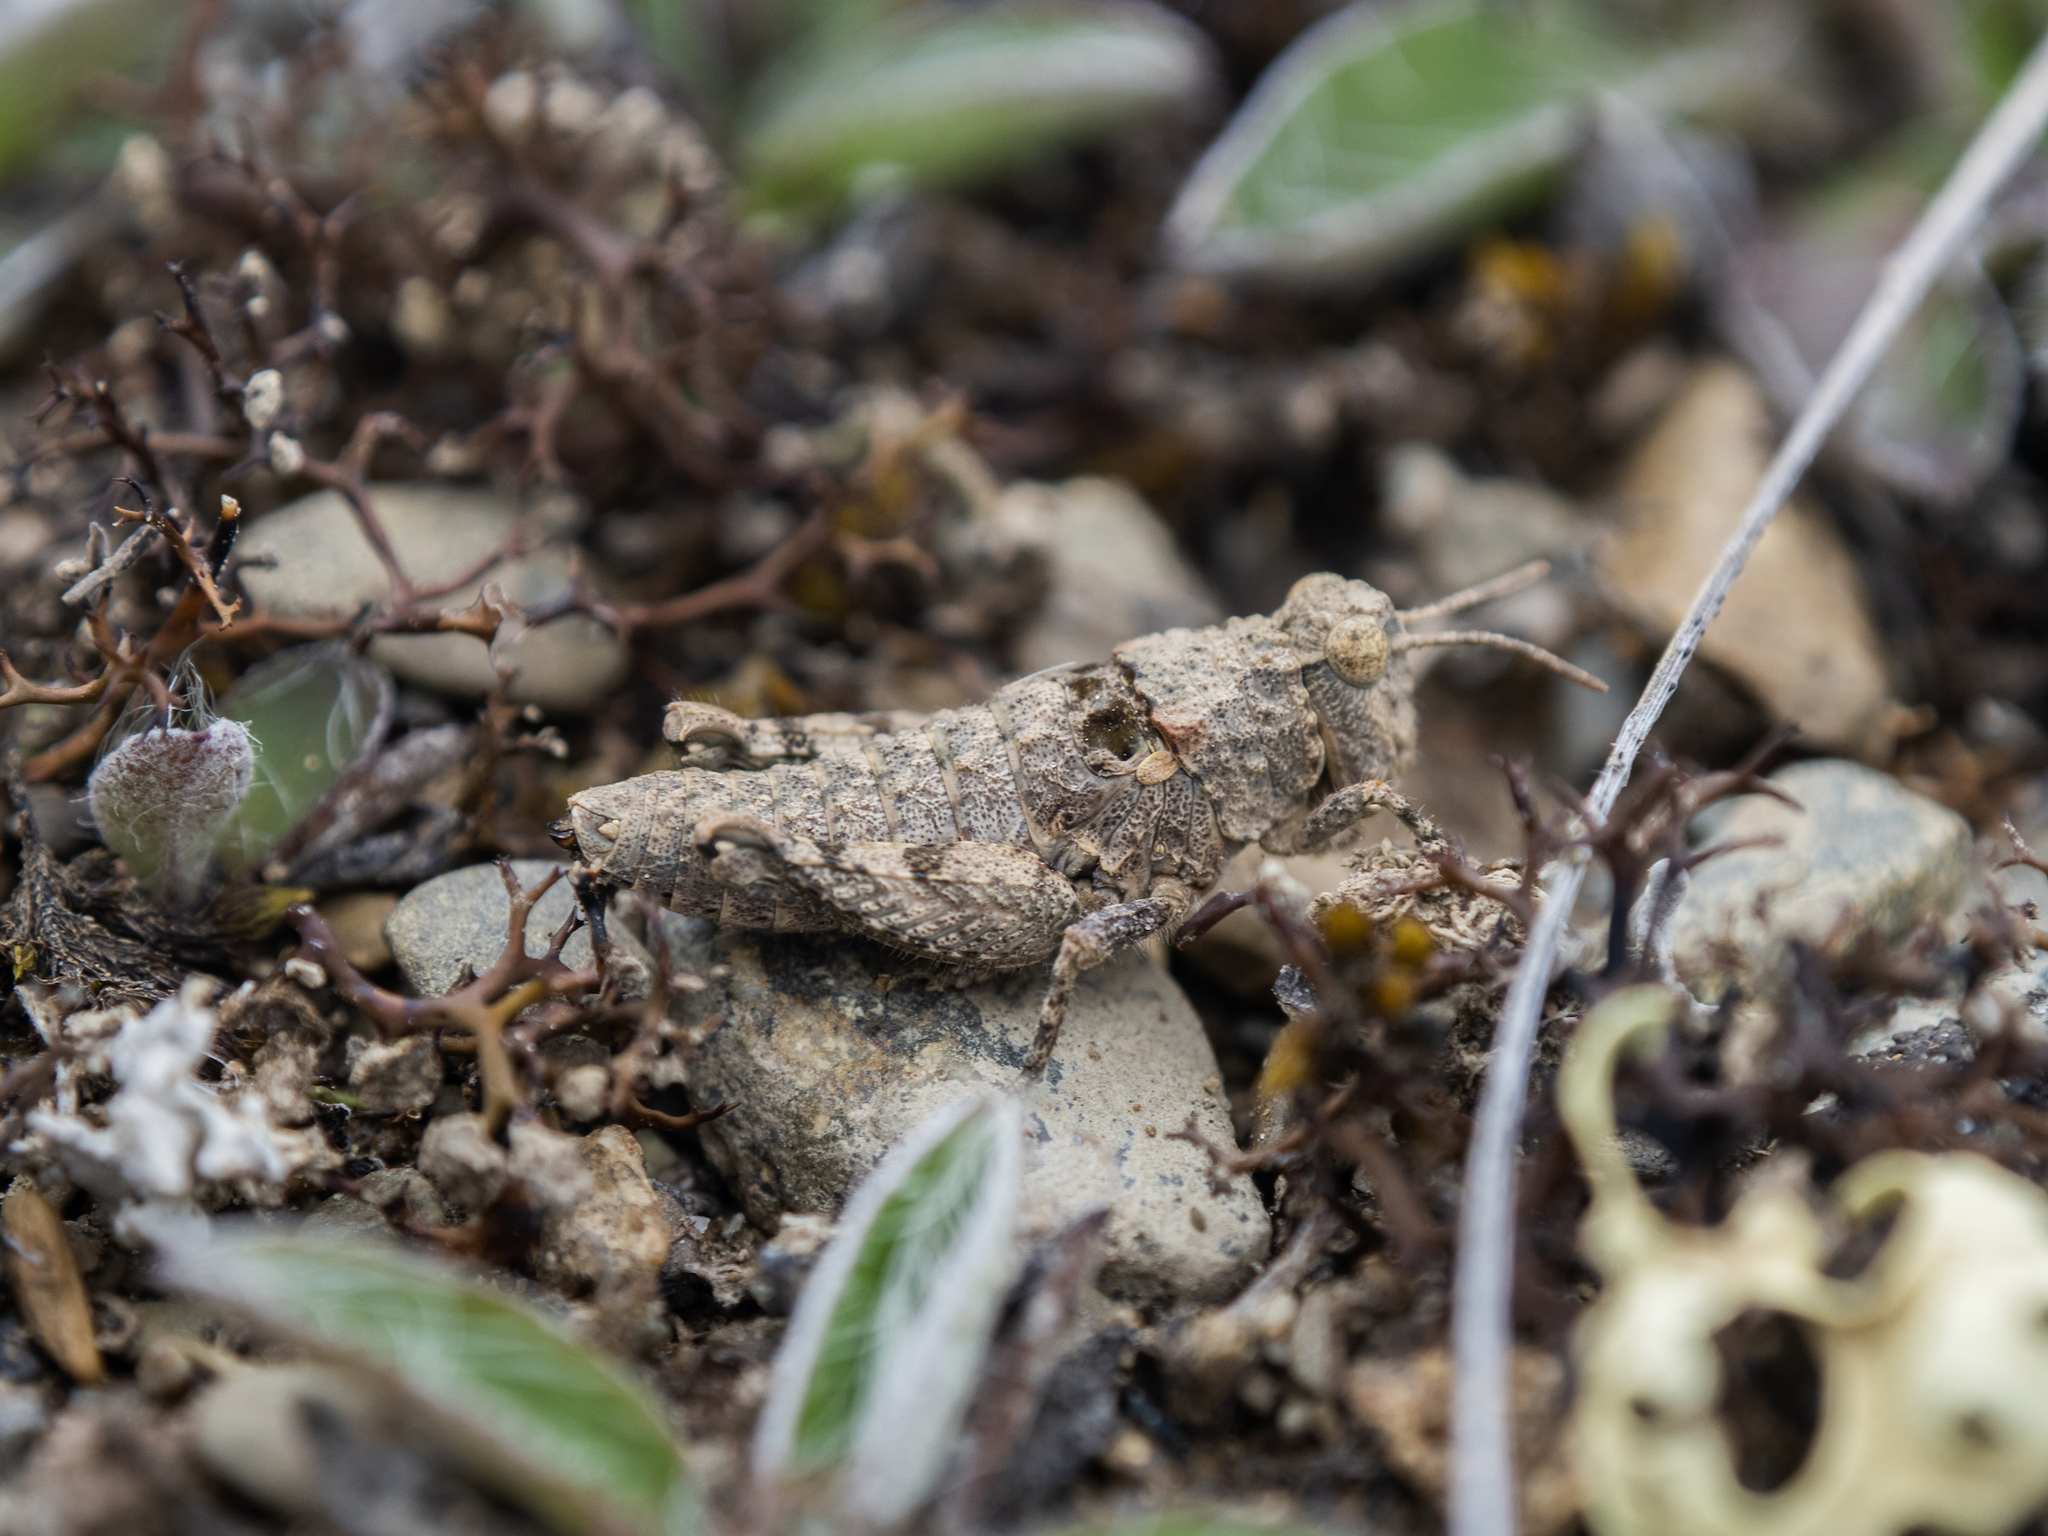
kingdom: Animalia
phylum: Arthropoda
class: Insecta
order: Orthoptera
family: Acrididae
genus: Sigaus
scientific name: Sigaus minutus
